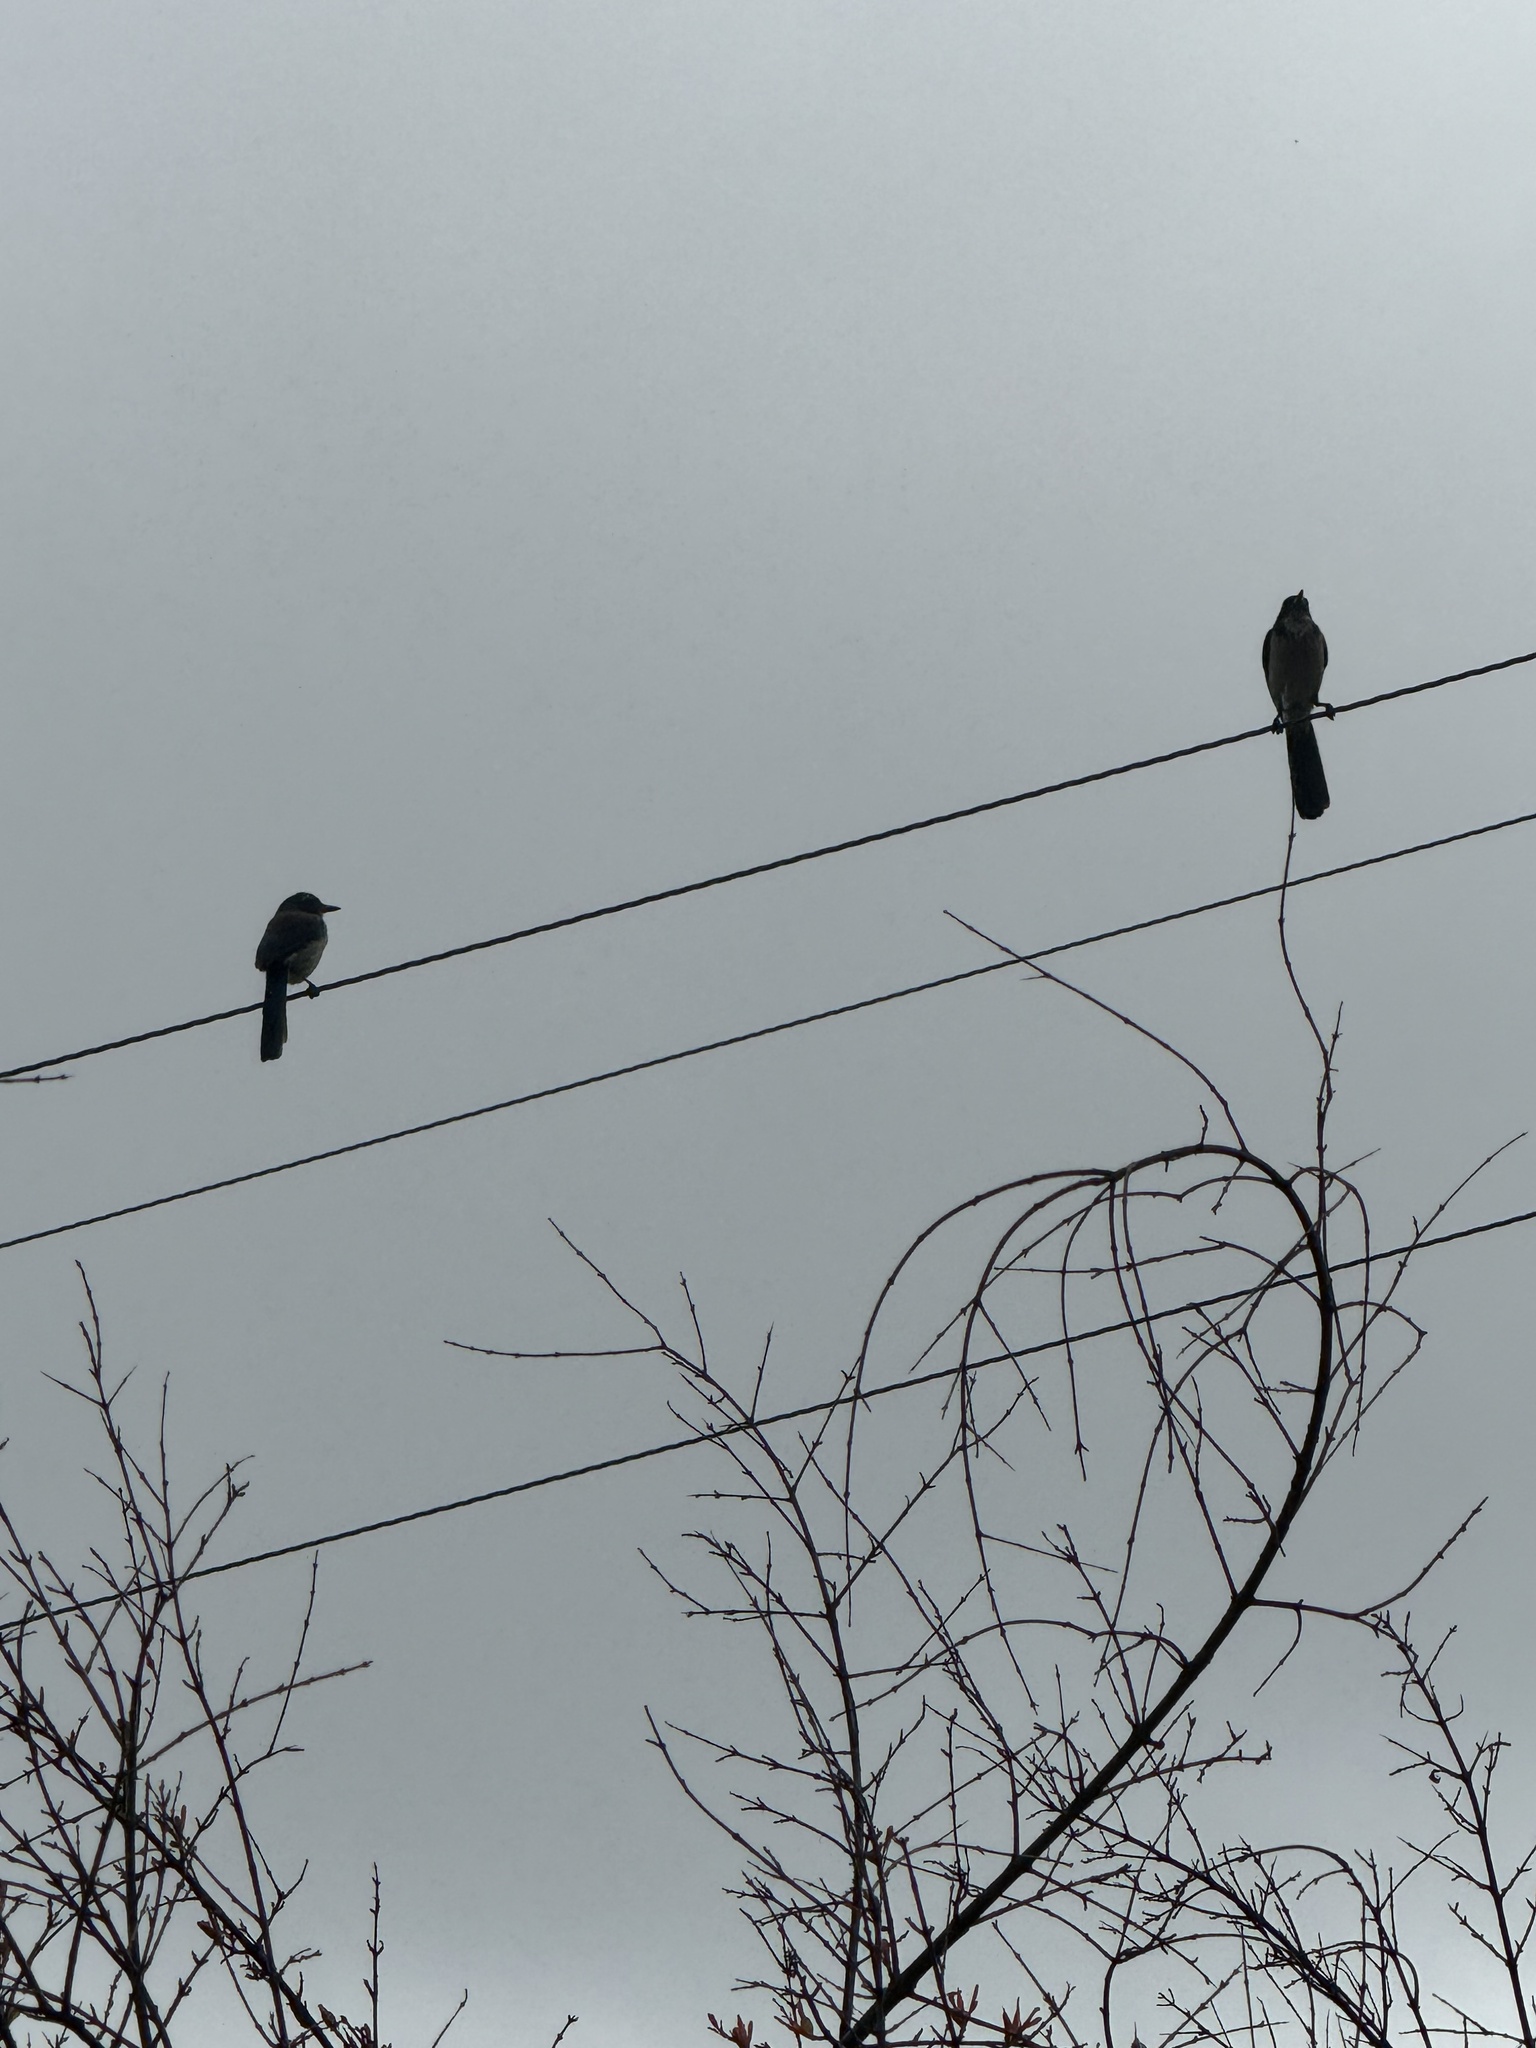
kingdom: Animalia
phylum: Chordata
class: Aves
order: Passeriformes
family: Corvidae
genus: Aphelocoma
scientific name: Aphelocoma californica
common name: California scrub-jay
